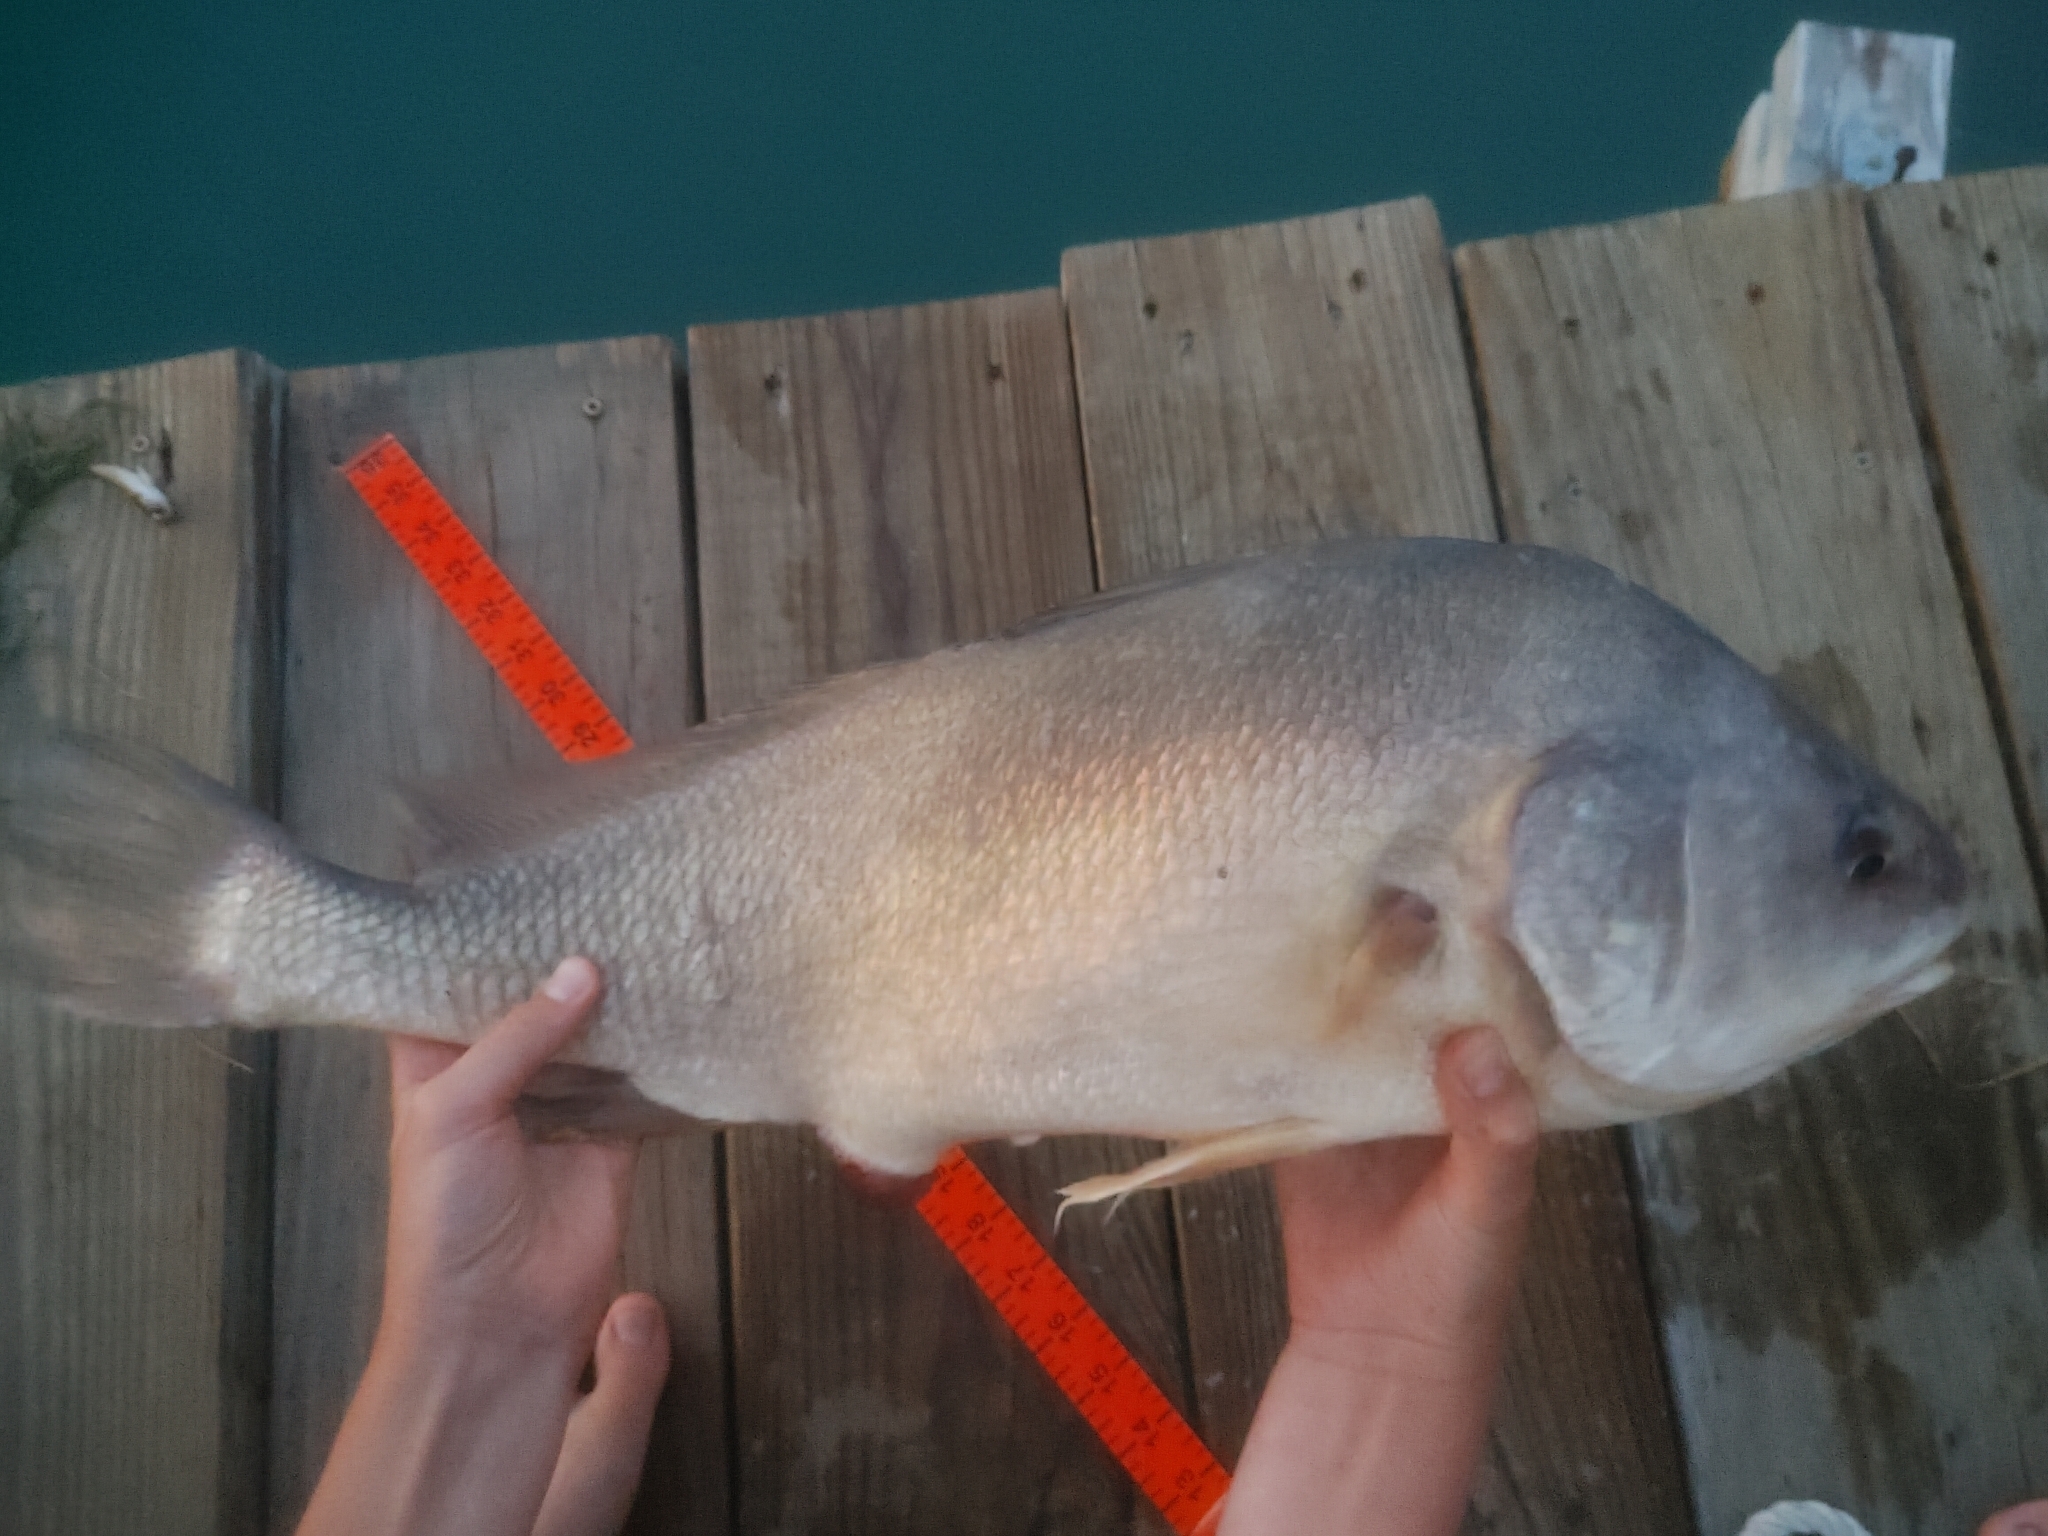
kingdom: Animalia
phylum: Chordata
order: Perciformes
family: Sciaenidae
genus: Aplodinotus
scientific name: Aplodinotus grunniens
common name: Freshwater drum
